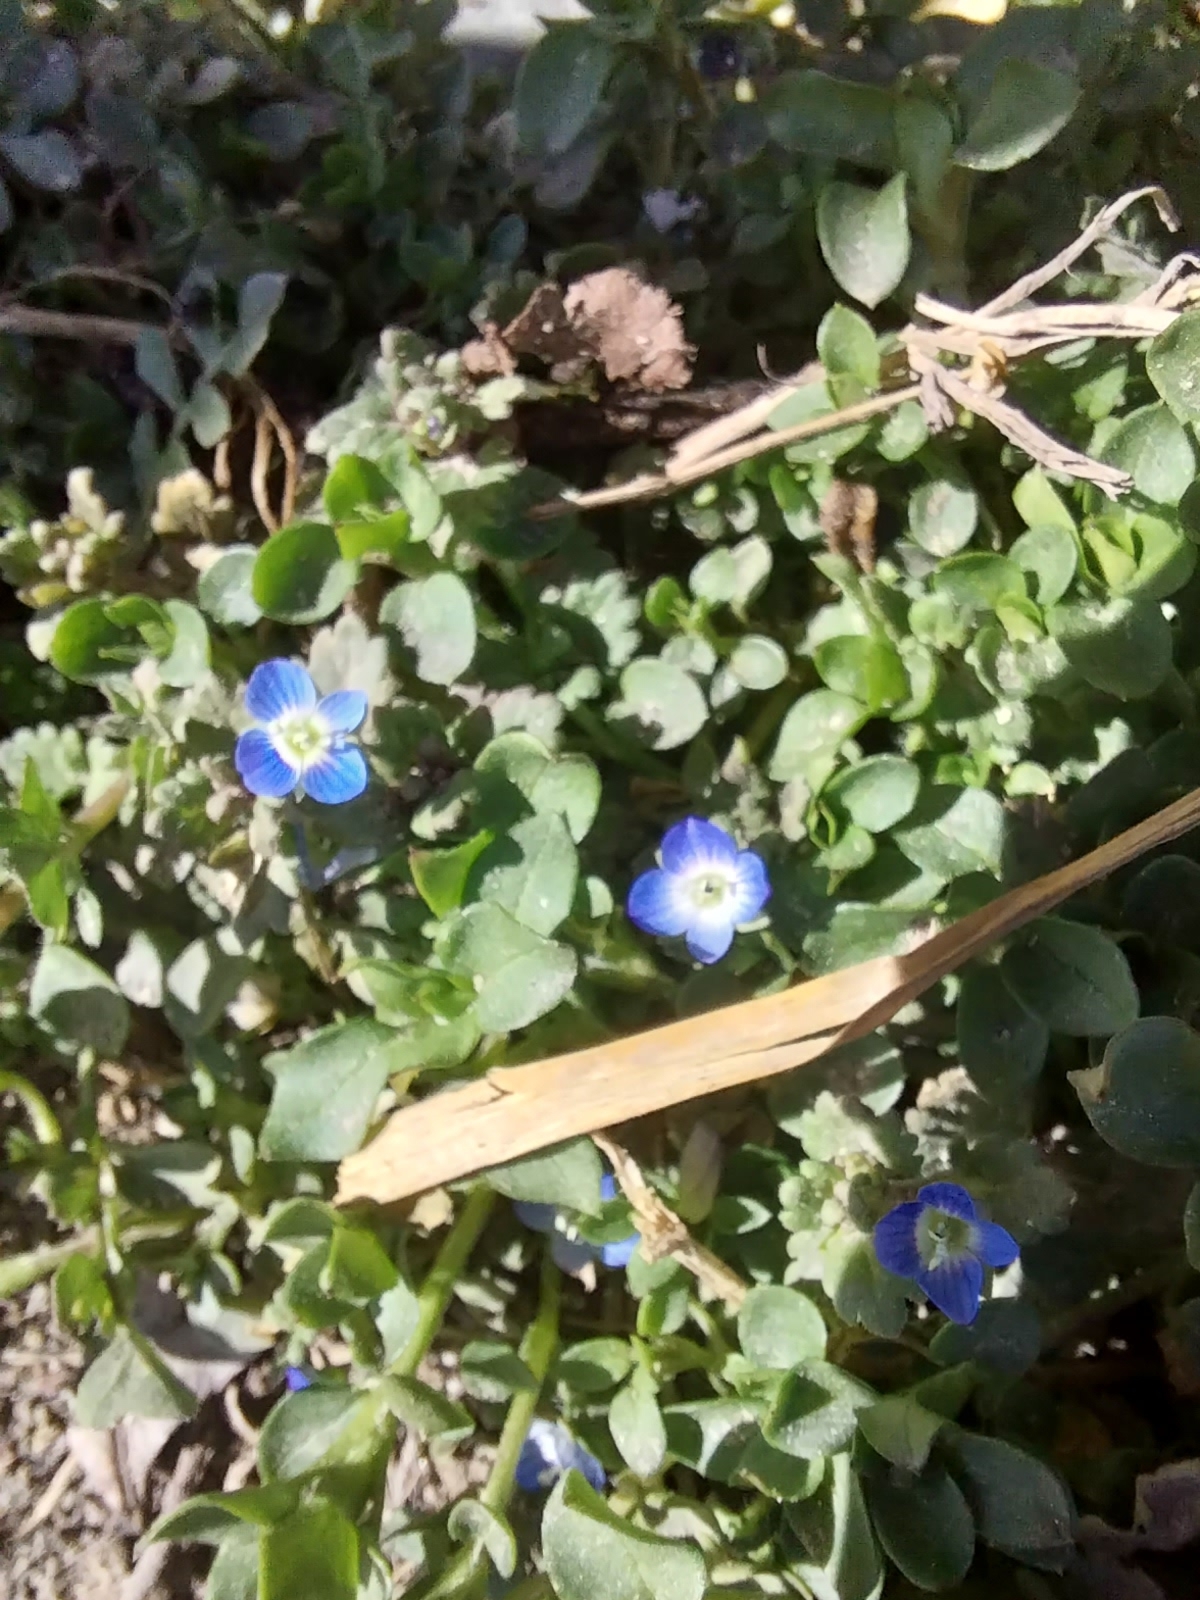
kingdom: Plantae
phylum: Tracheophyta
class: Magnoliopsida
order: Lamiales
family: Plantaginaceae
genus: Veronica
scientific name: Veronica polita
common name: Grey field-speedwell
